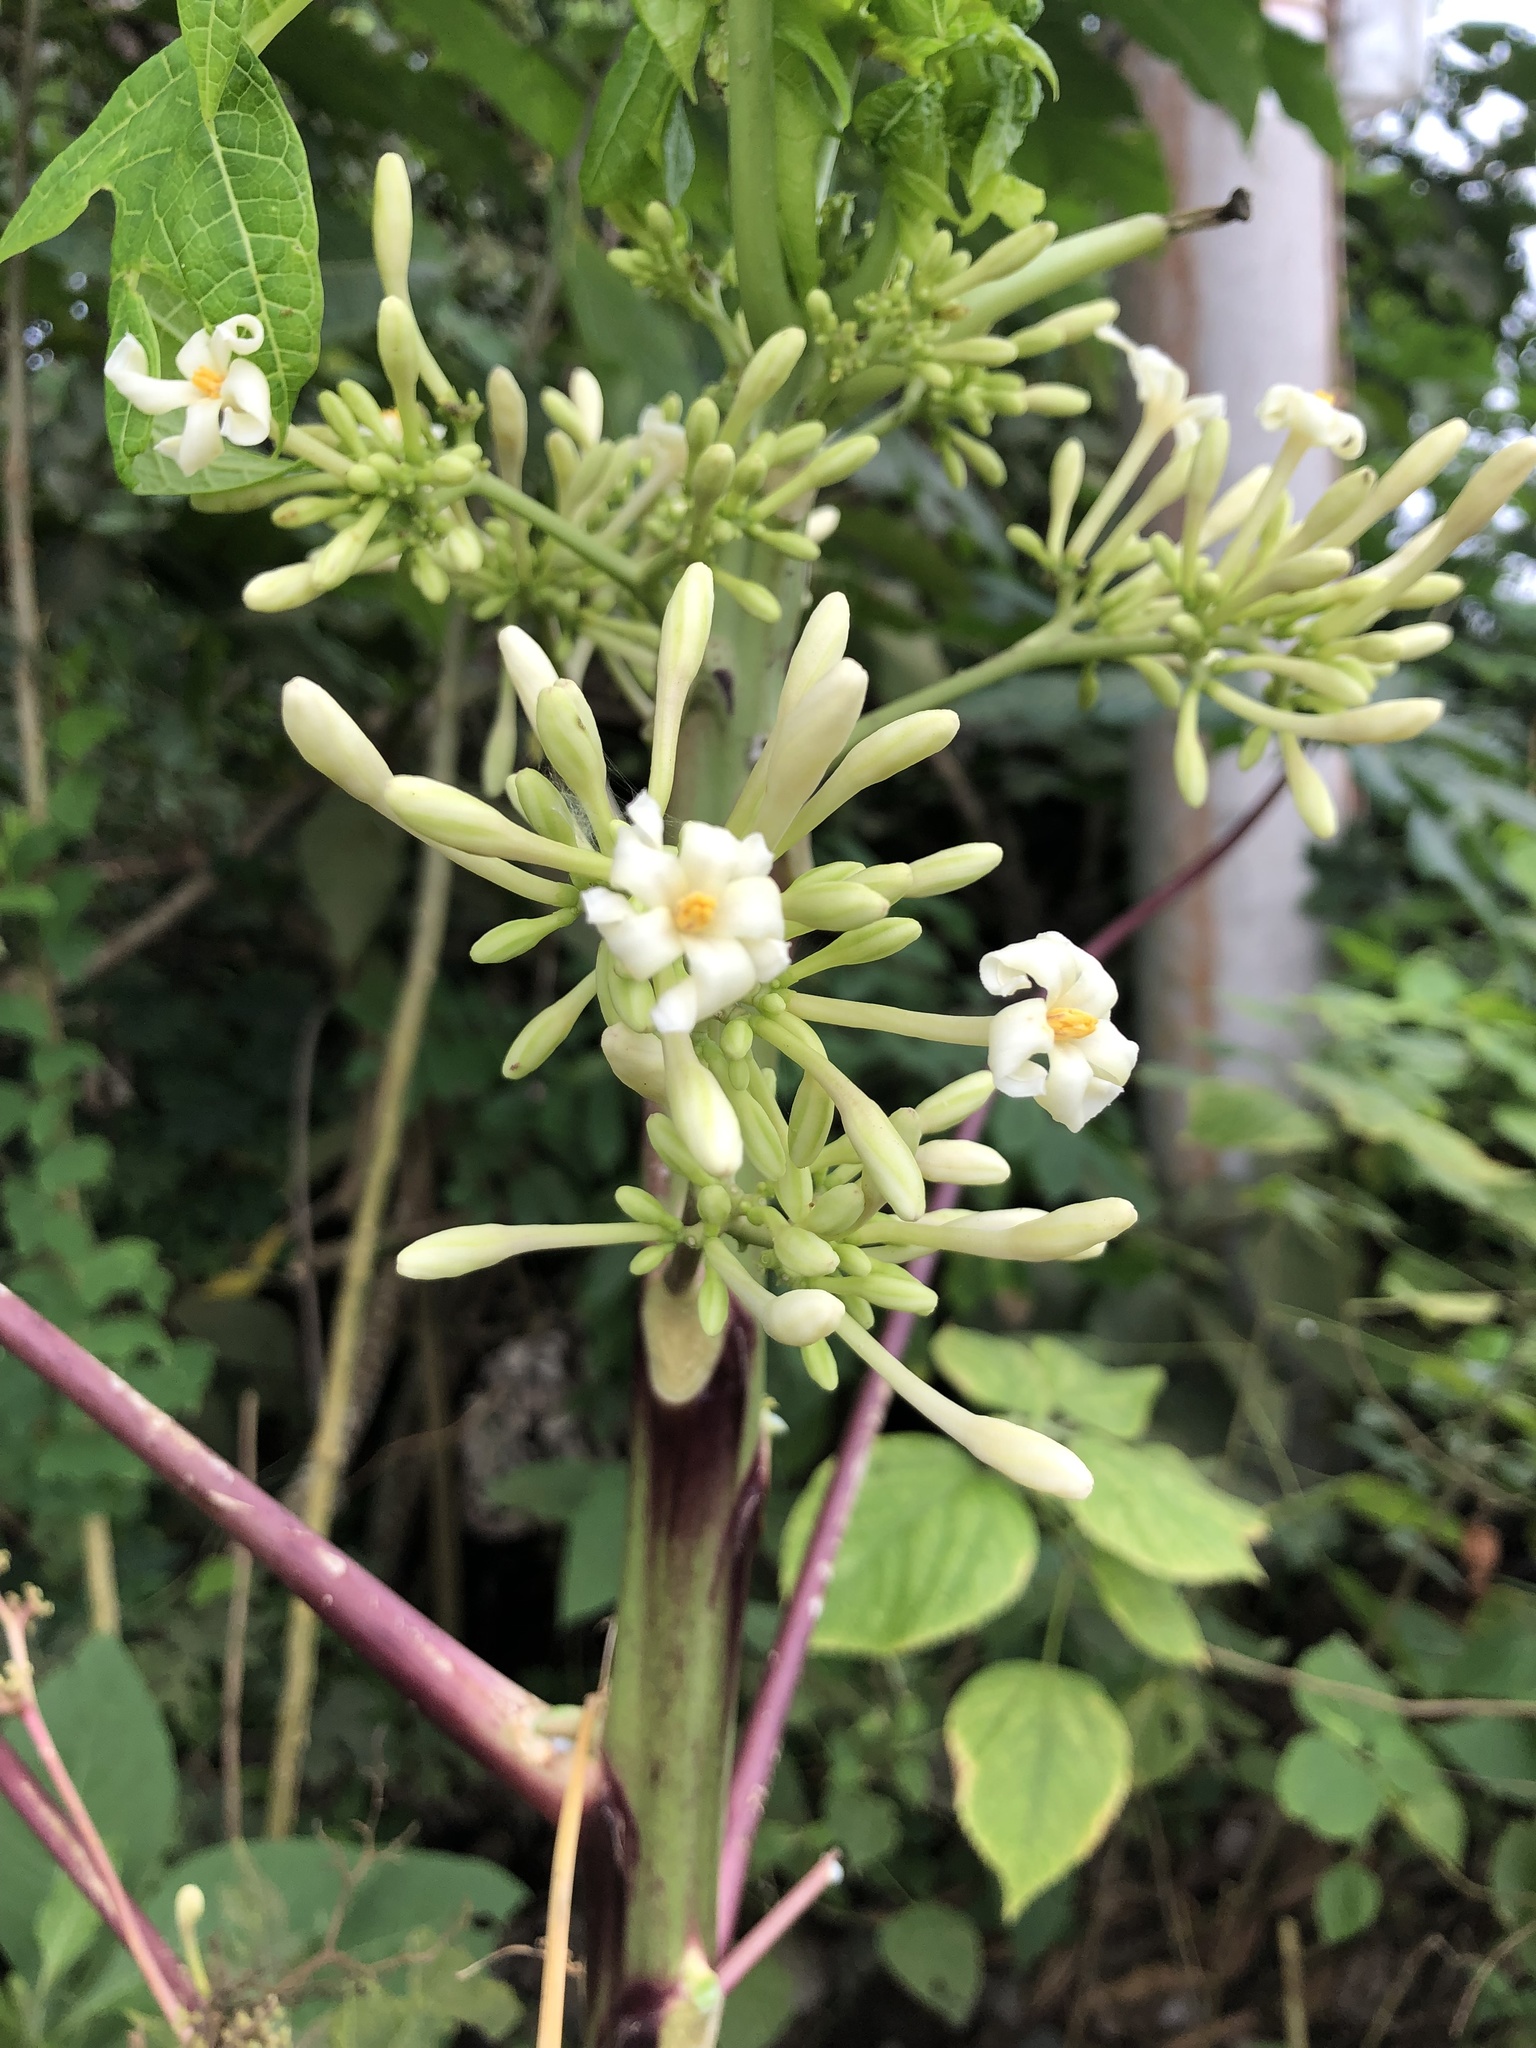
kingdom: Plantae
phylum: Tracheophyta
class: Magnoliopsida
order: Brassicales
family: Caricaceae
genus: Carica
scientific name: Carica papaya
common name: Papaya
